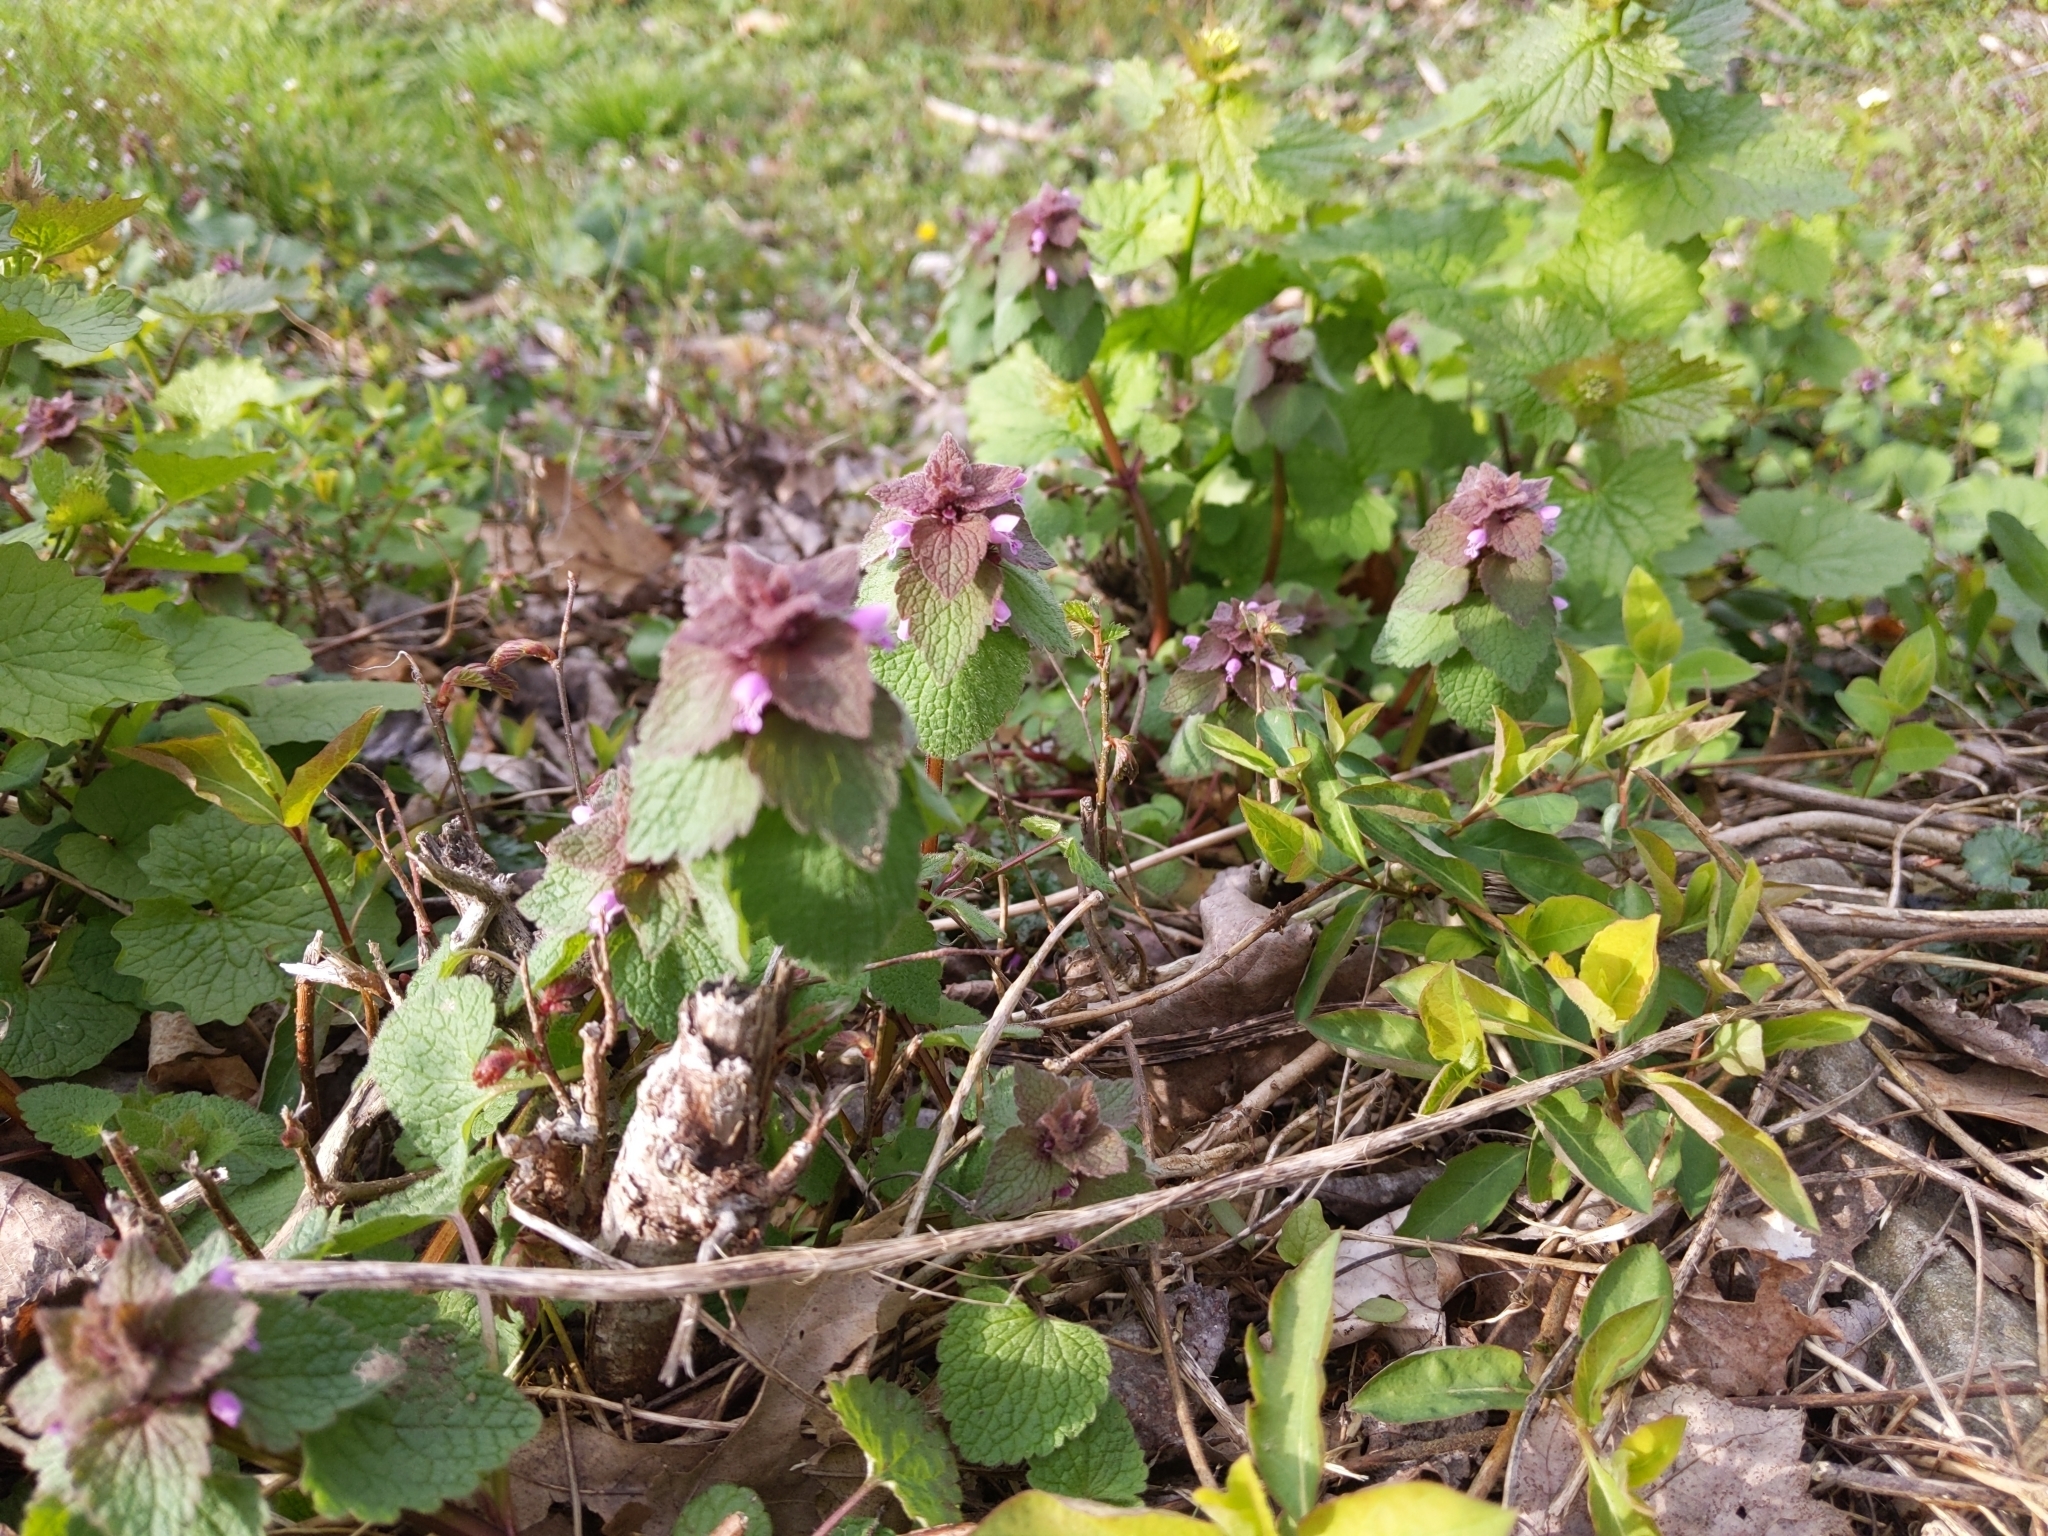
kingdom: Plantae
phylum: Tracheophyta
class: Magnoliopsida
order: Lamiales
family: Lamiaceae
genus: Lamium
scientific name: Lamium purpureum
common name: Red dead-nettle
